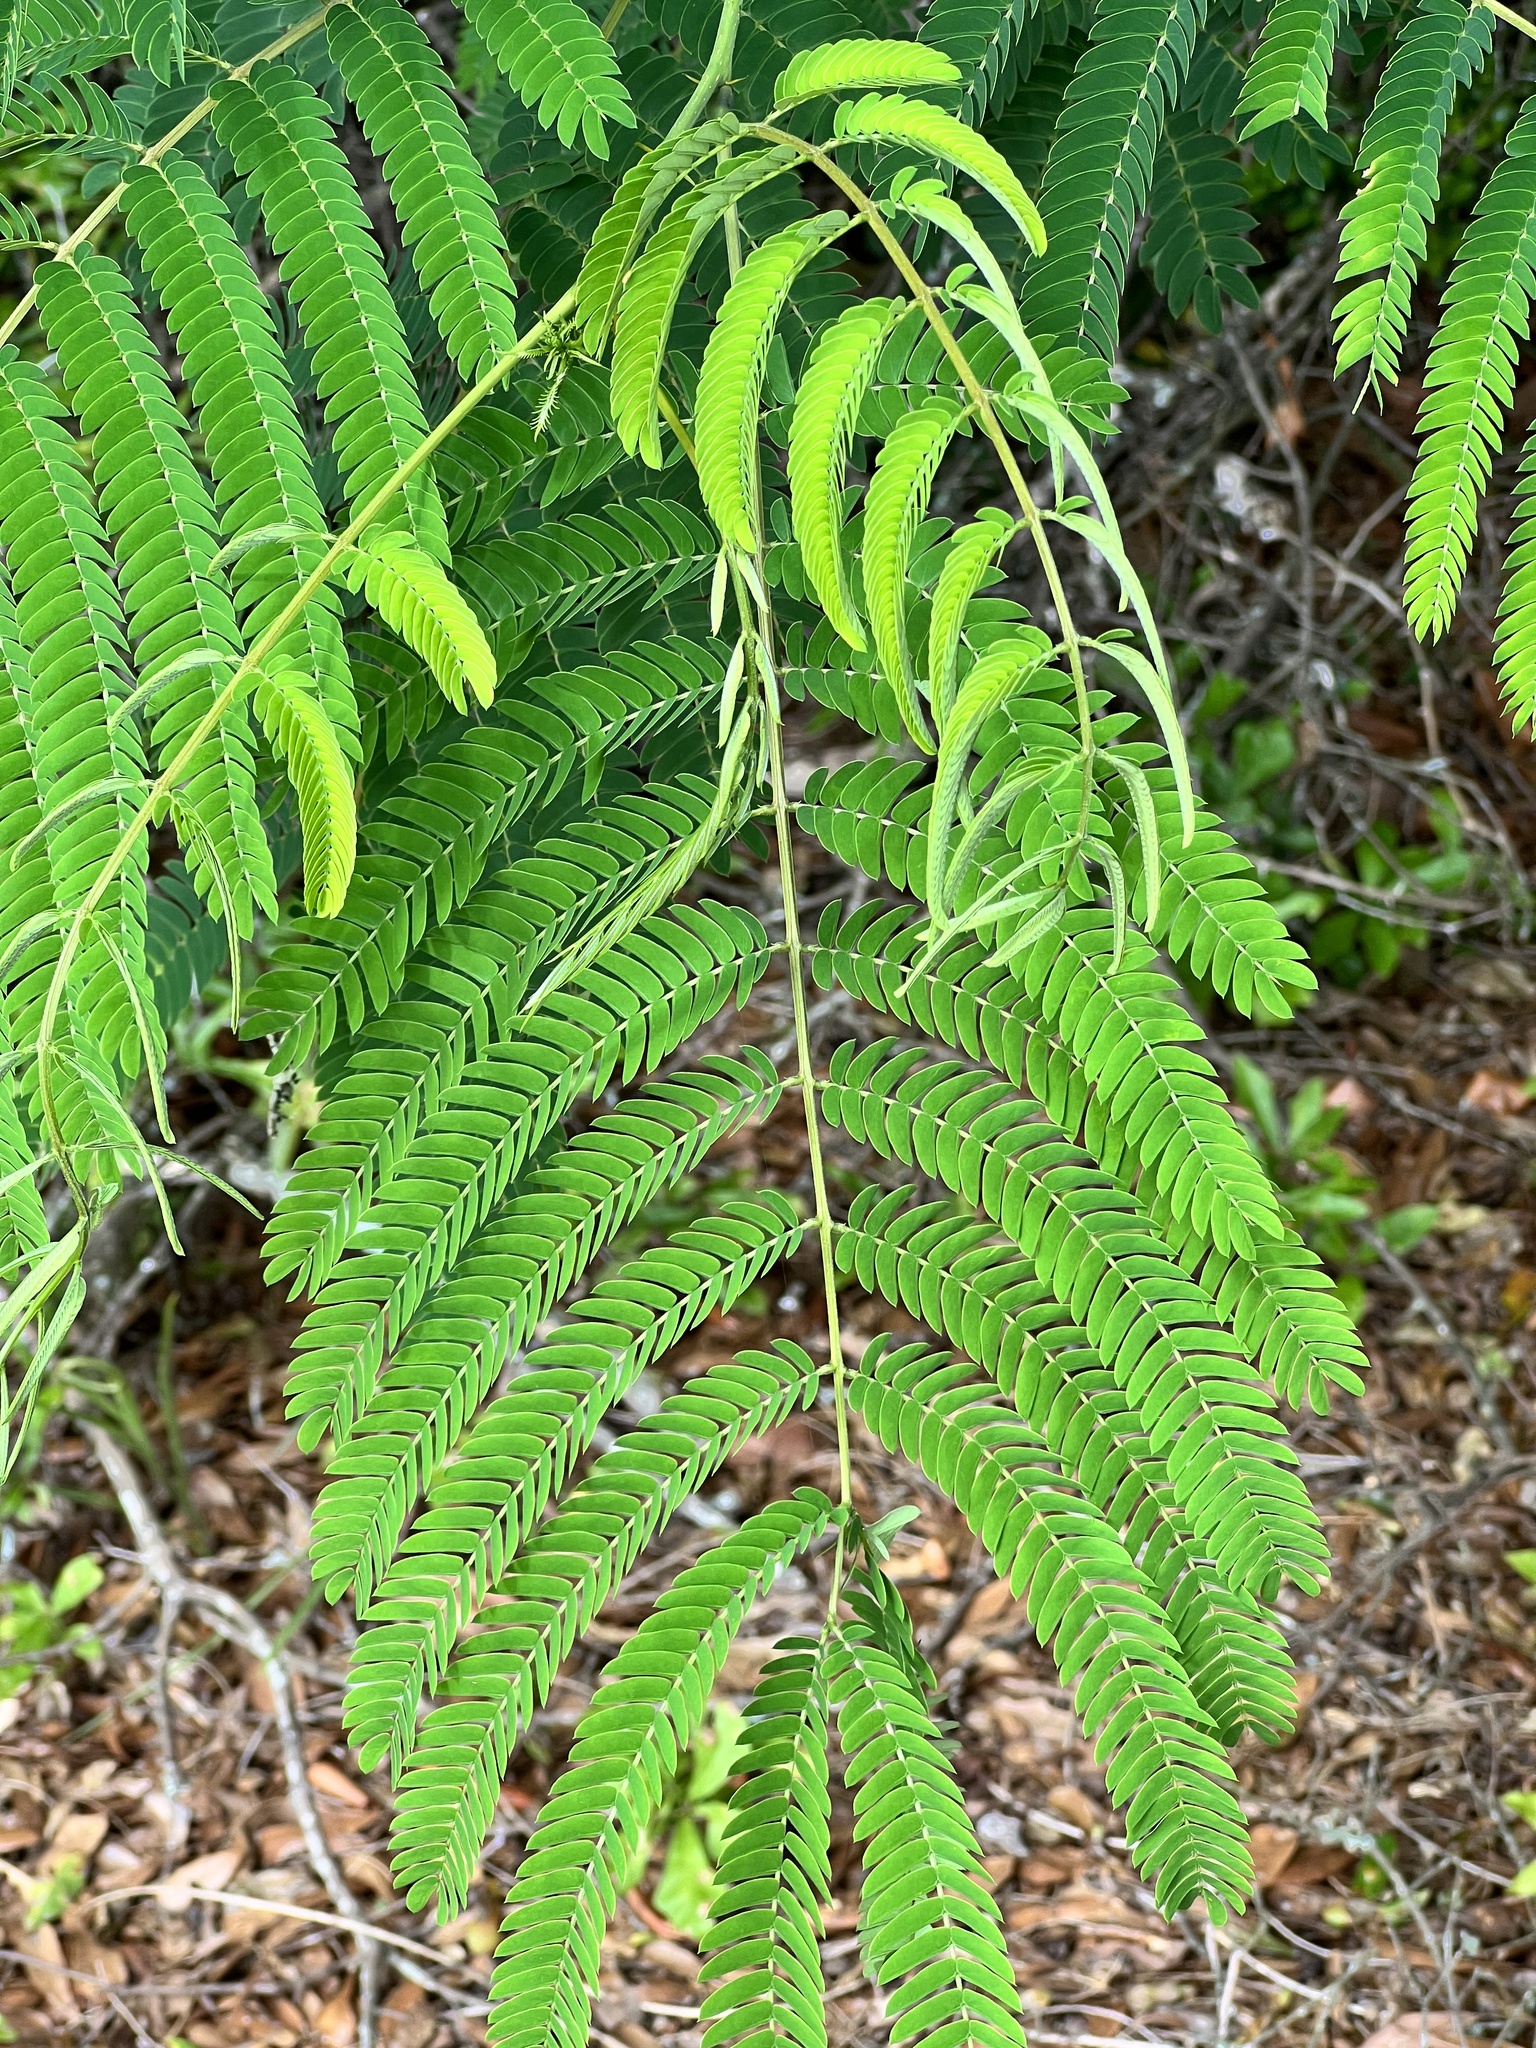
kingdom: Plantae
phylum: Tracheophyta
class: Magnoliopsida
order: Fabales
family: Fabaceae
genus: Albizia
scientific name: Albizia julibrissin
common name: Silktree
